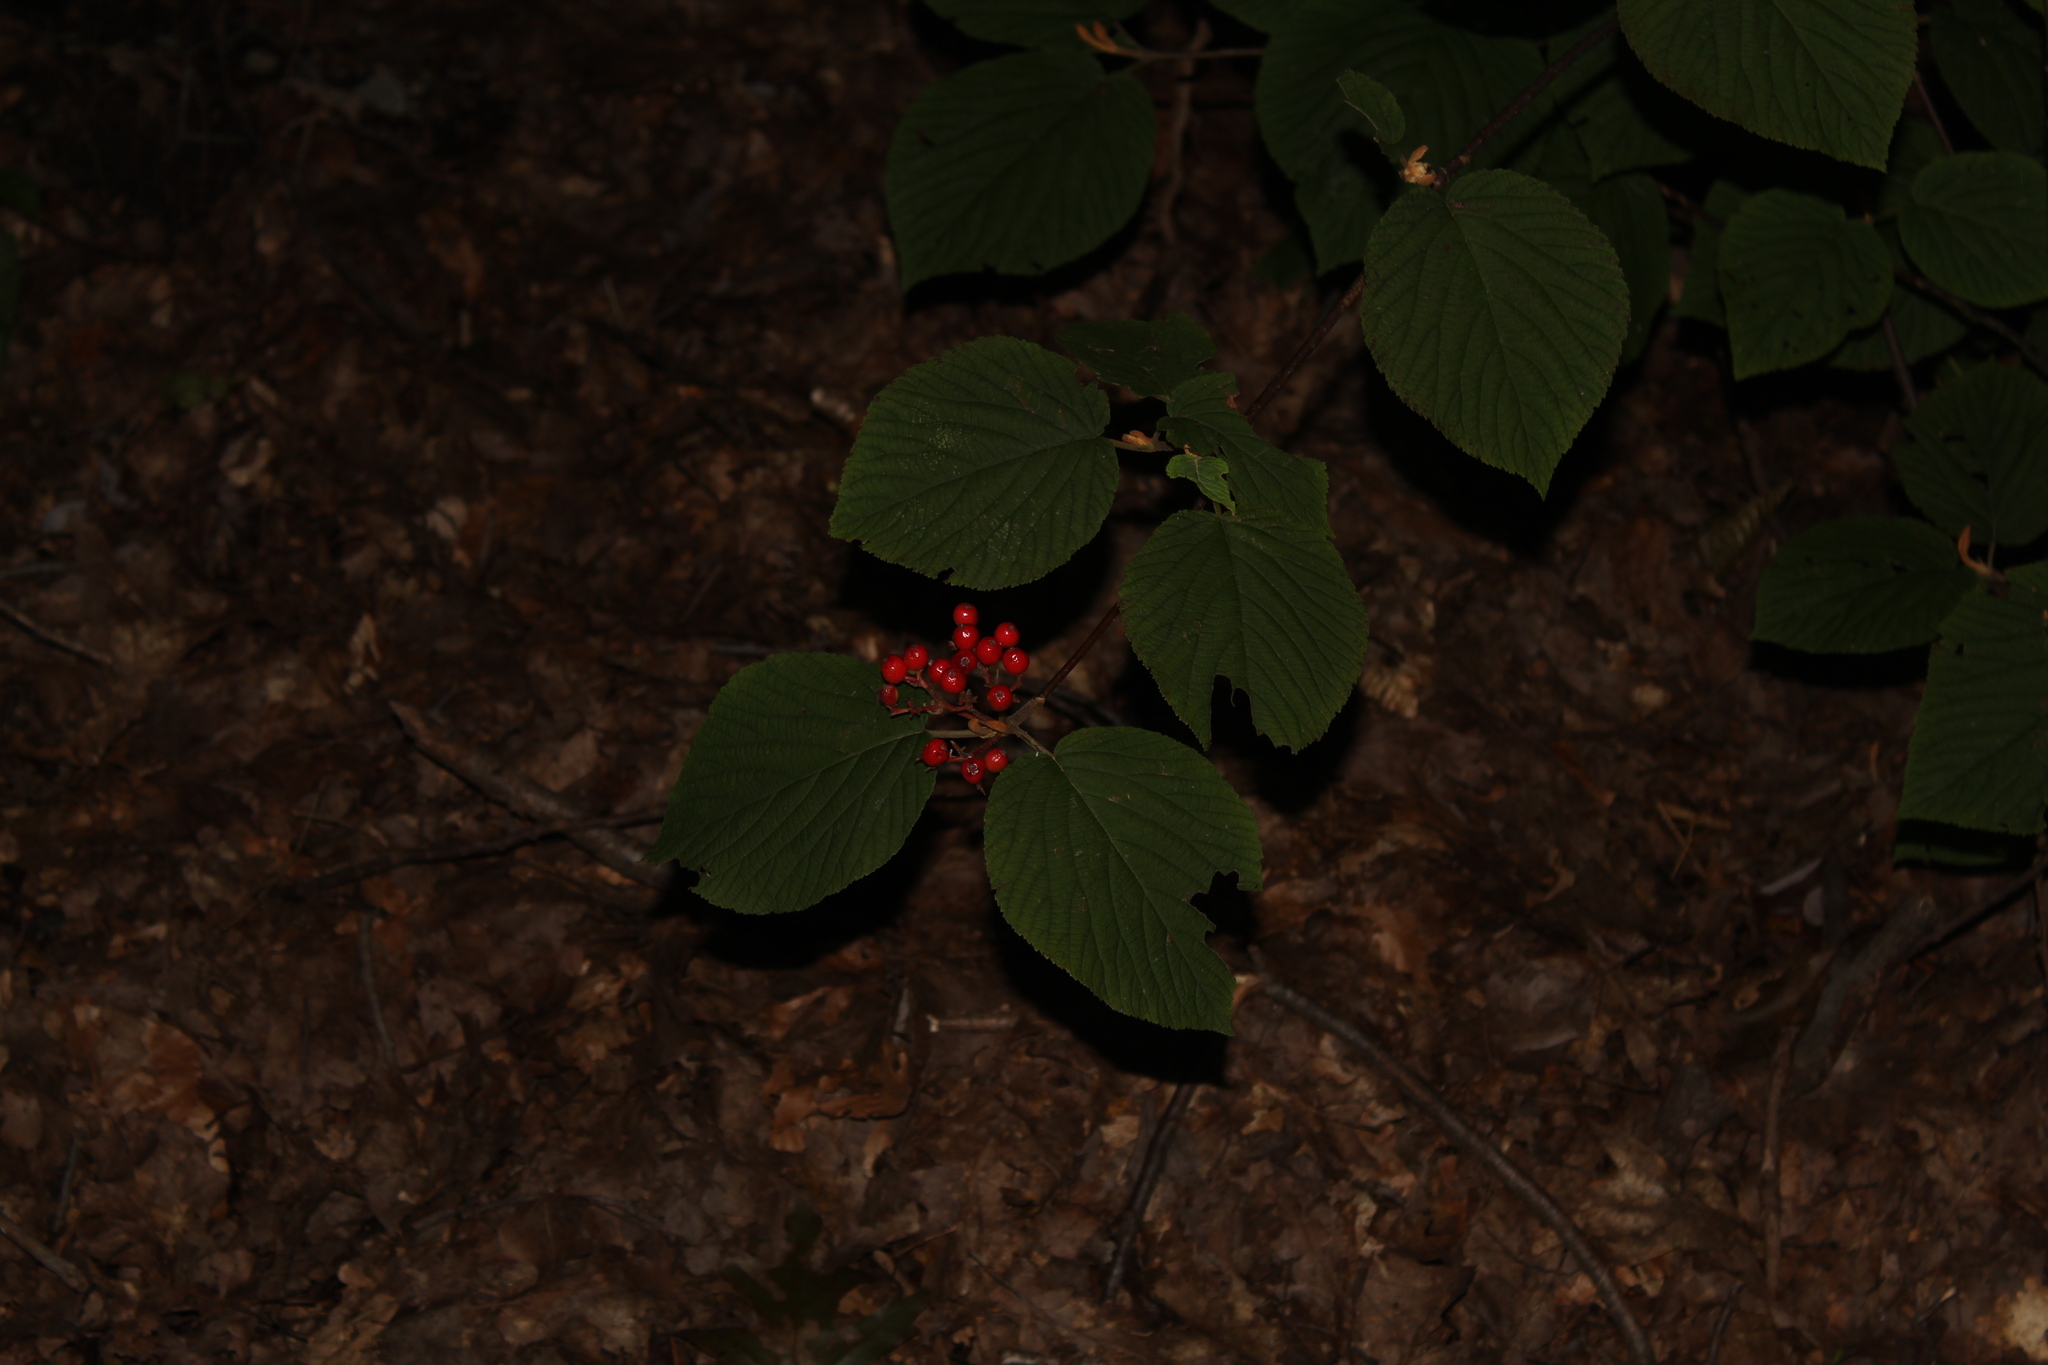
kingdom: Plantae
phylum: Tracheophyta
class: Magnoliopsida
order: Dipsacales
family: Viburnaceae
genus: Viburnum
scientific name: Viburnum lantanoides
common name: Hobblebush
